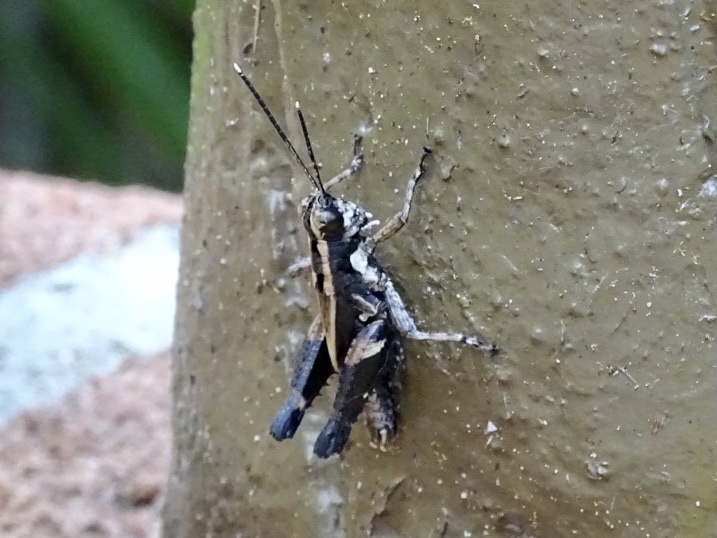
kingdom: Animalia
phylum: Arthropoda
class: Insecta
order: Orthoptera
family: Acrididae
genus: Traulia
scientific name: Traulia ornata
